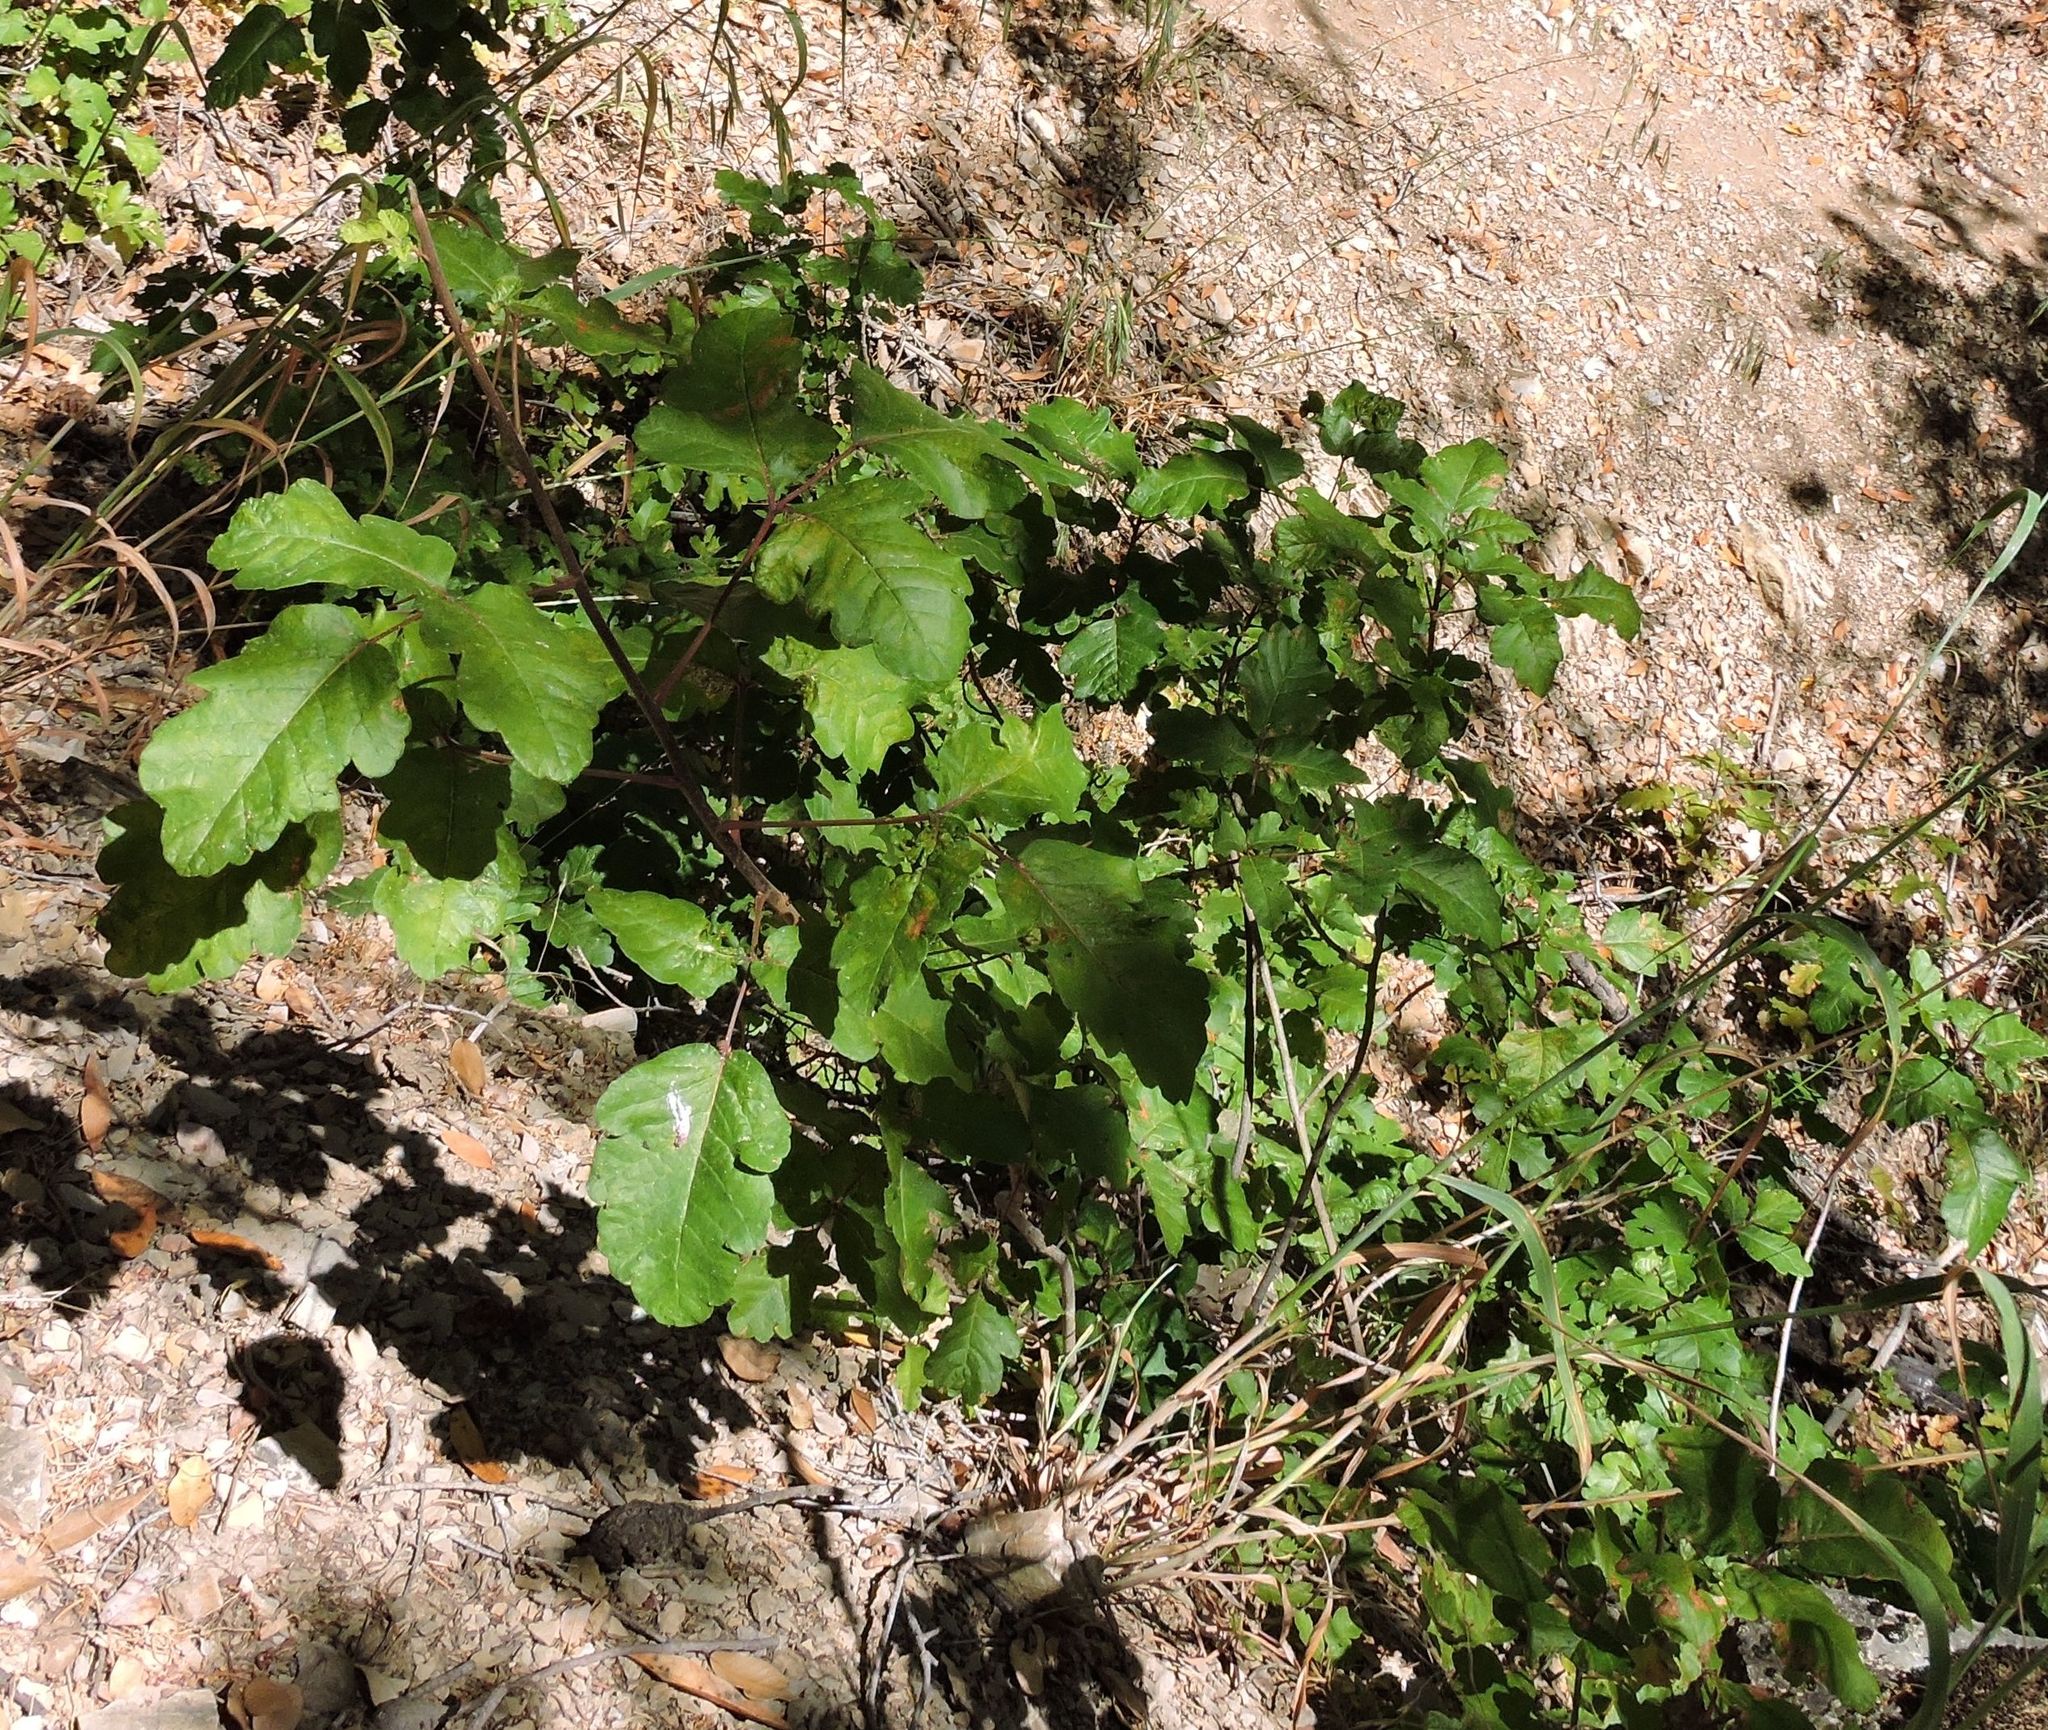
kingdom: Plantae
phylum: Tracheophyta
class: Magnoliopsida
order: Sapindales
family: Anacardiaceae
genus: Toxicodendron
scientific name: Toxicodendron diversilobum
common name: Pacific poison-oak
